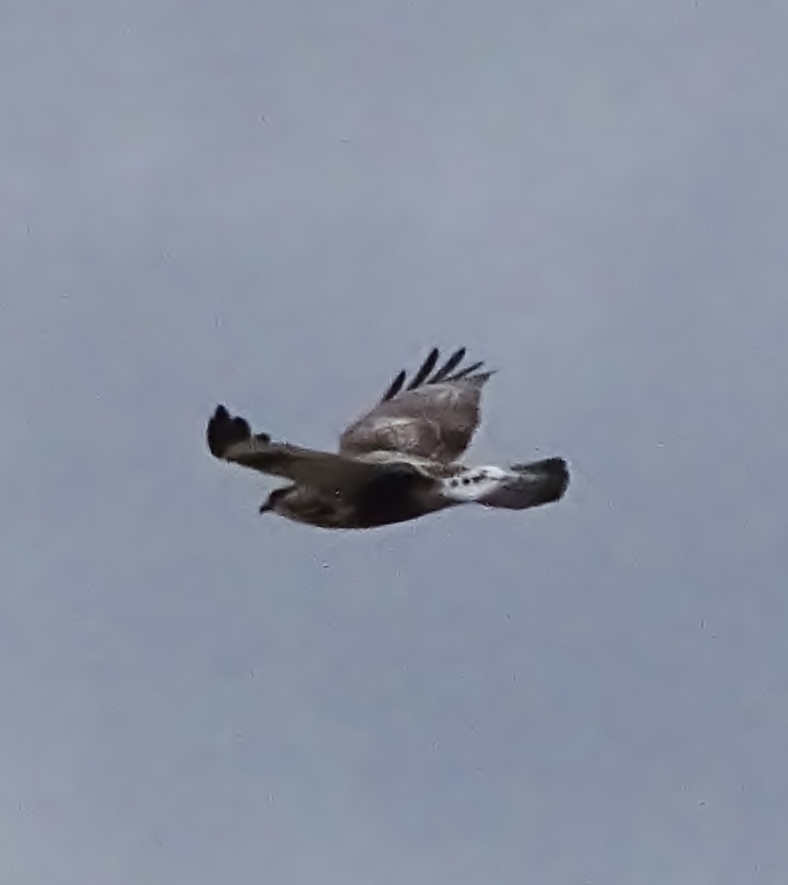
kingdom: Animalia
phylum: Chordata
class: Aves
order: Accipitriformes
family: Accipitridae
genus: Buteo
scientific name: Buteo lagopus
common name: Rough-legged buzzard
